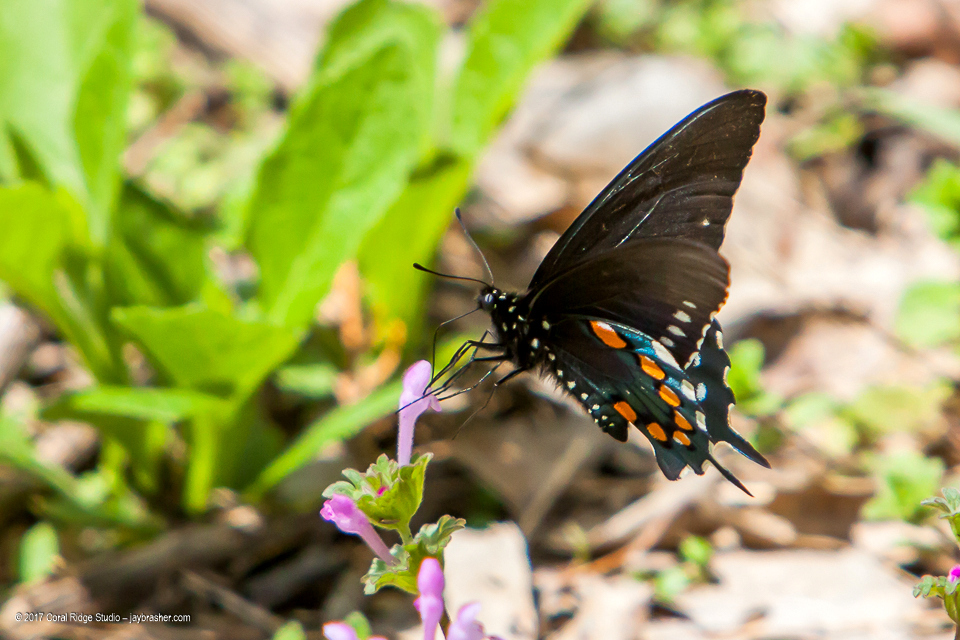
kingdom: Animalia
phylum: Arthropoda
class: Insecta
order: Lepidoptera
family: Papilionidae
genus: Battus
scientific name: Battus philenor
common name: Pipevine swallowtail
